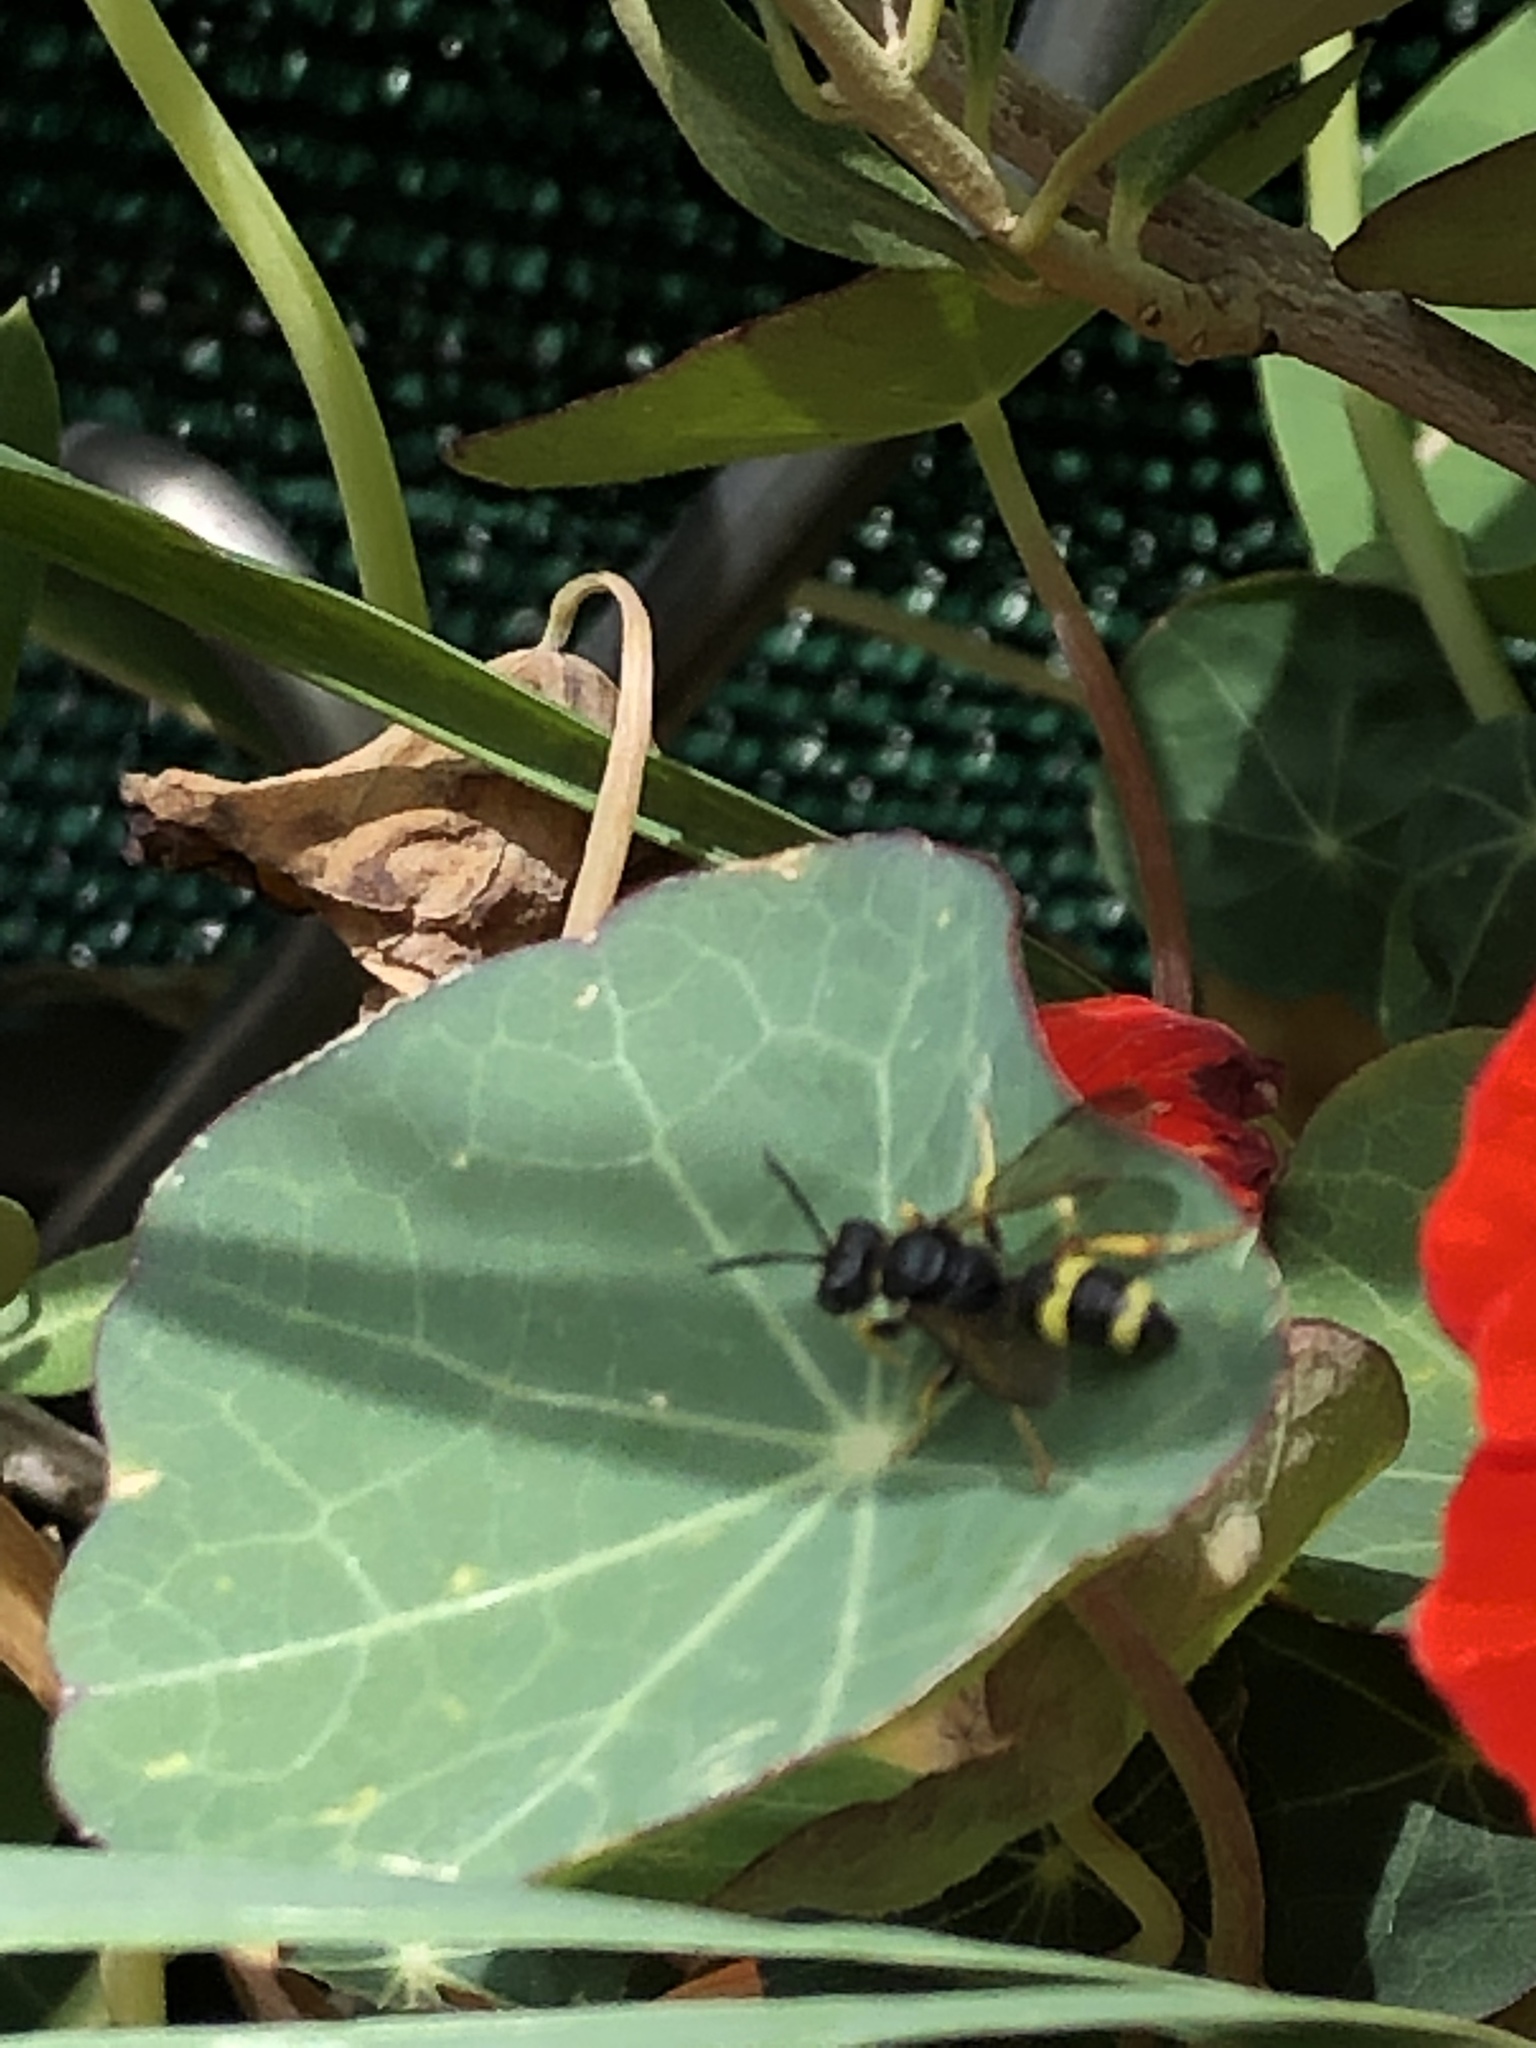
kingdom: Animalia
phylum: Arthropoda
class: Insecta
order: Hymenoptera
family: Crabronidae
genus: Cerceris
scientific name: Cerceris rybyensis
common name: Ornate tailed digger wasp
